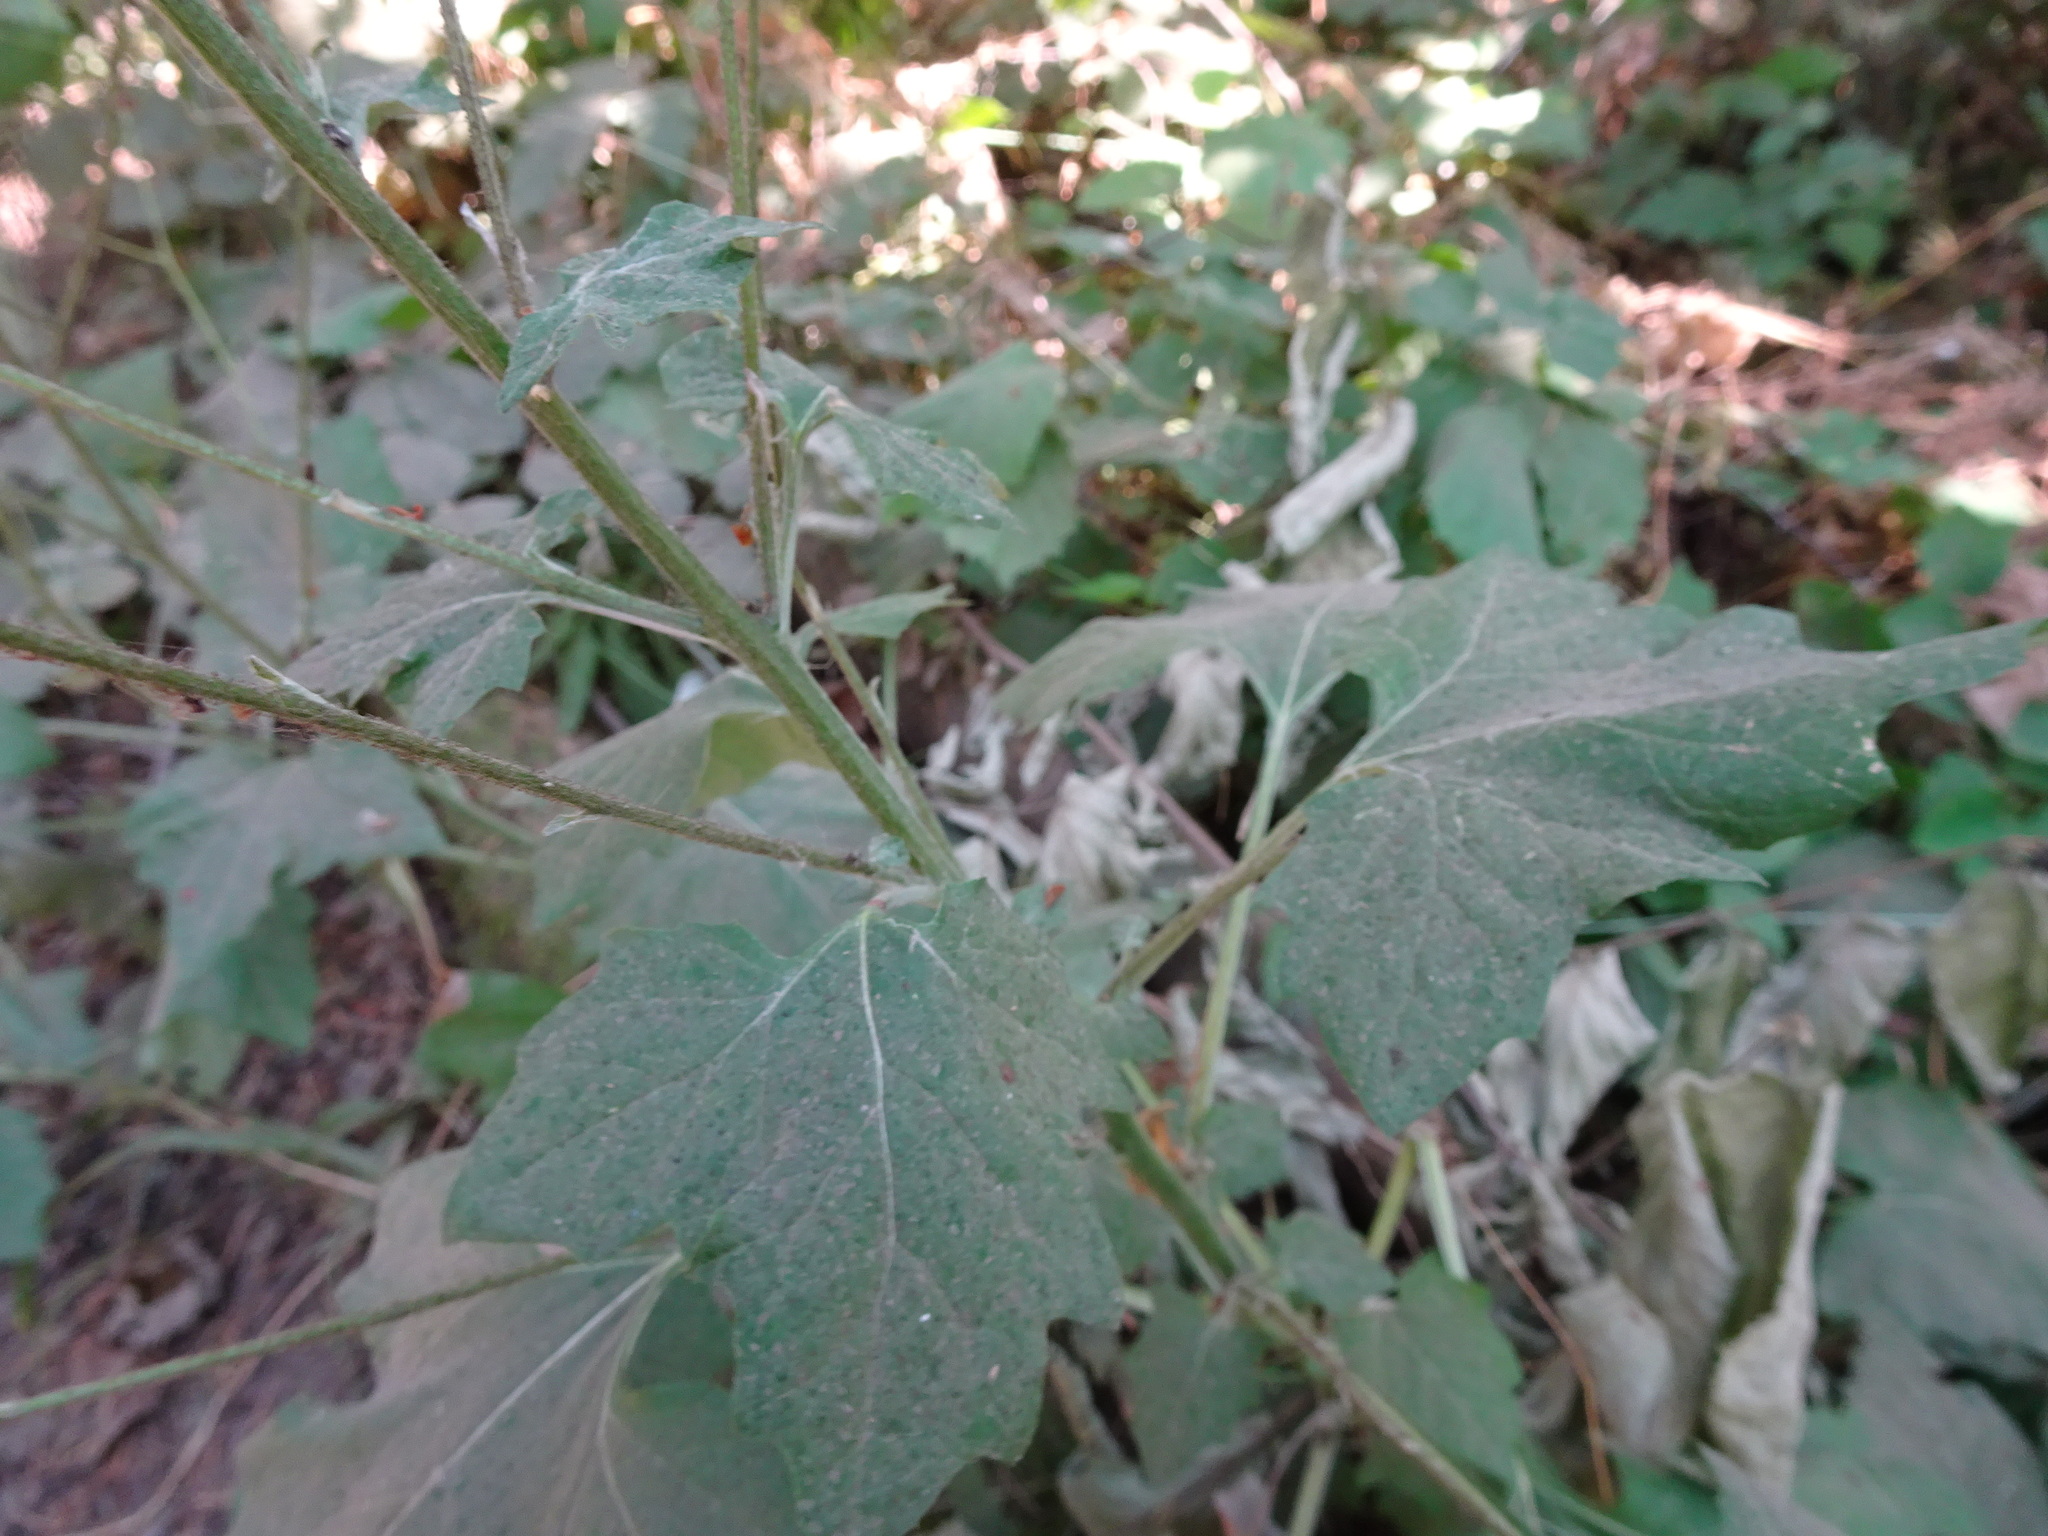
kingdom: Plantae
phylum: Tracheophyta
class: Magnoliopsida
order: Asterales
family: Asteraceae
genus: Adenocaulon
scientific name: Adenocaulon bicolor
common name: Trailplant
